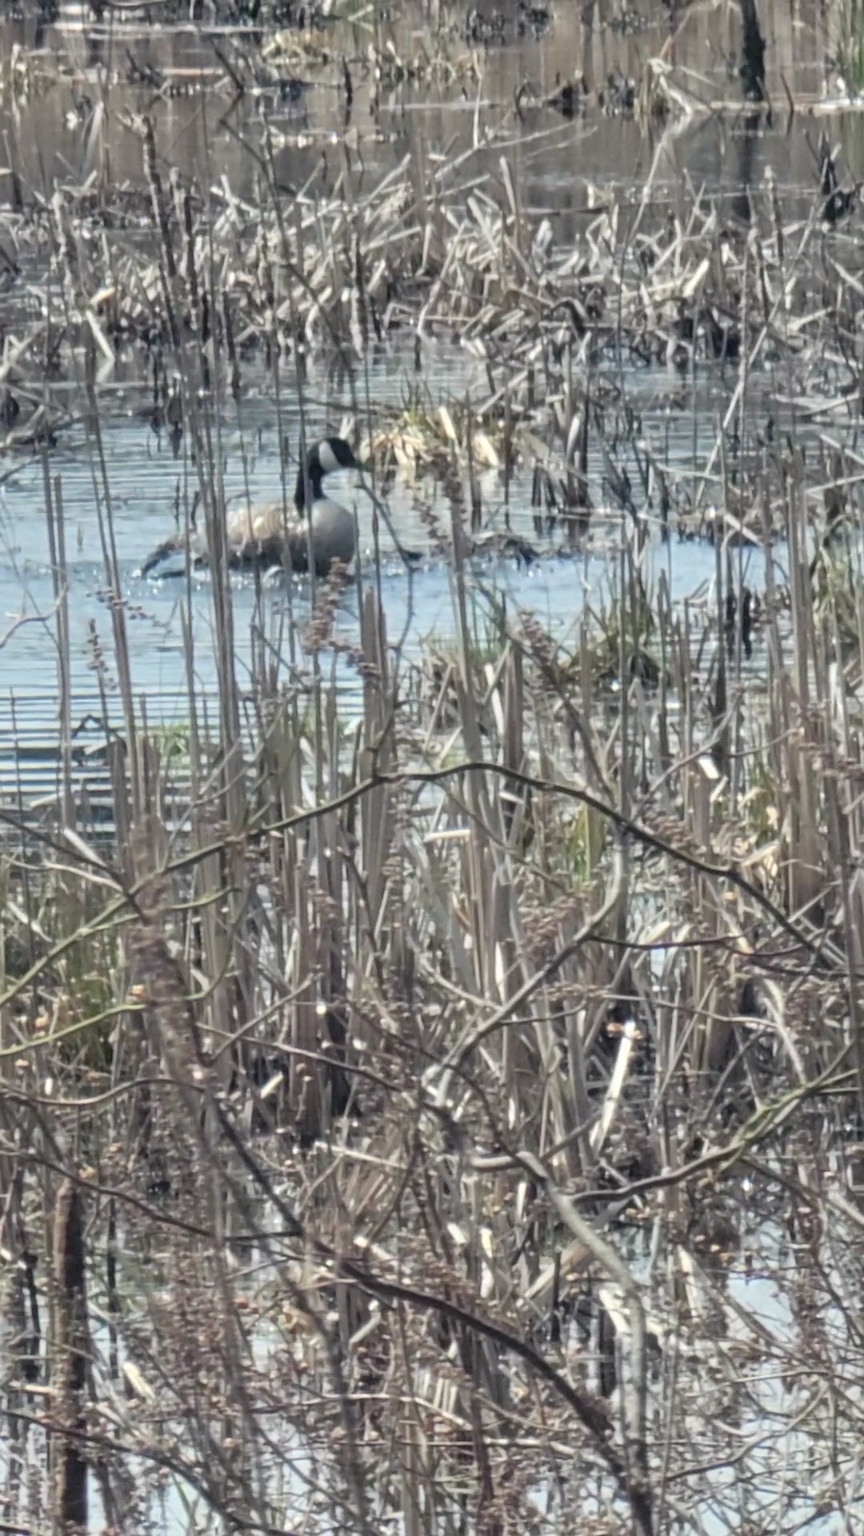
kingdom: Animalia
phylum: Chordata
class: Aves
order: Anseriformes
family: Anatidae
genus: Branta
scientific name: Branta canadensis
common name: Canada goose
